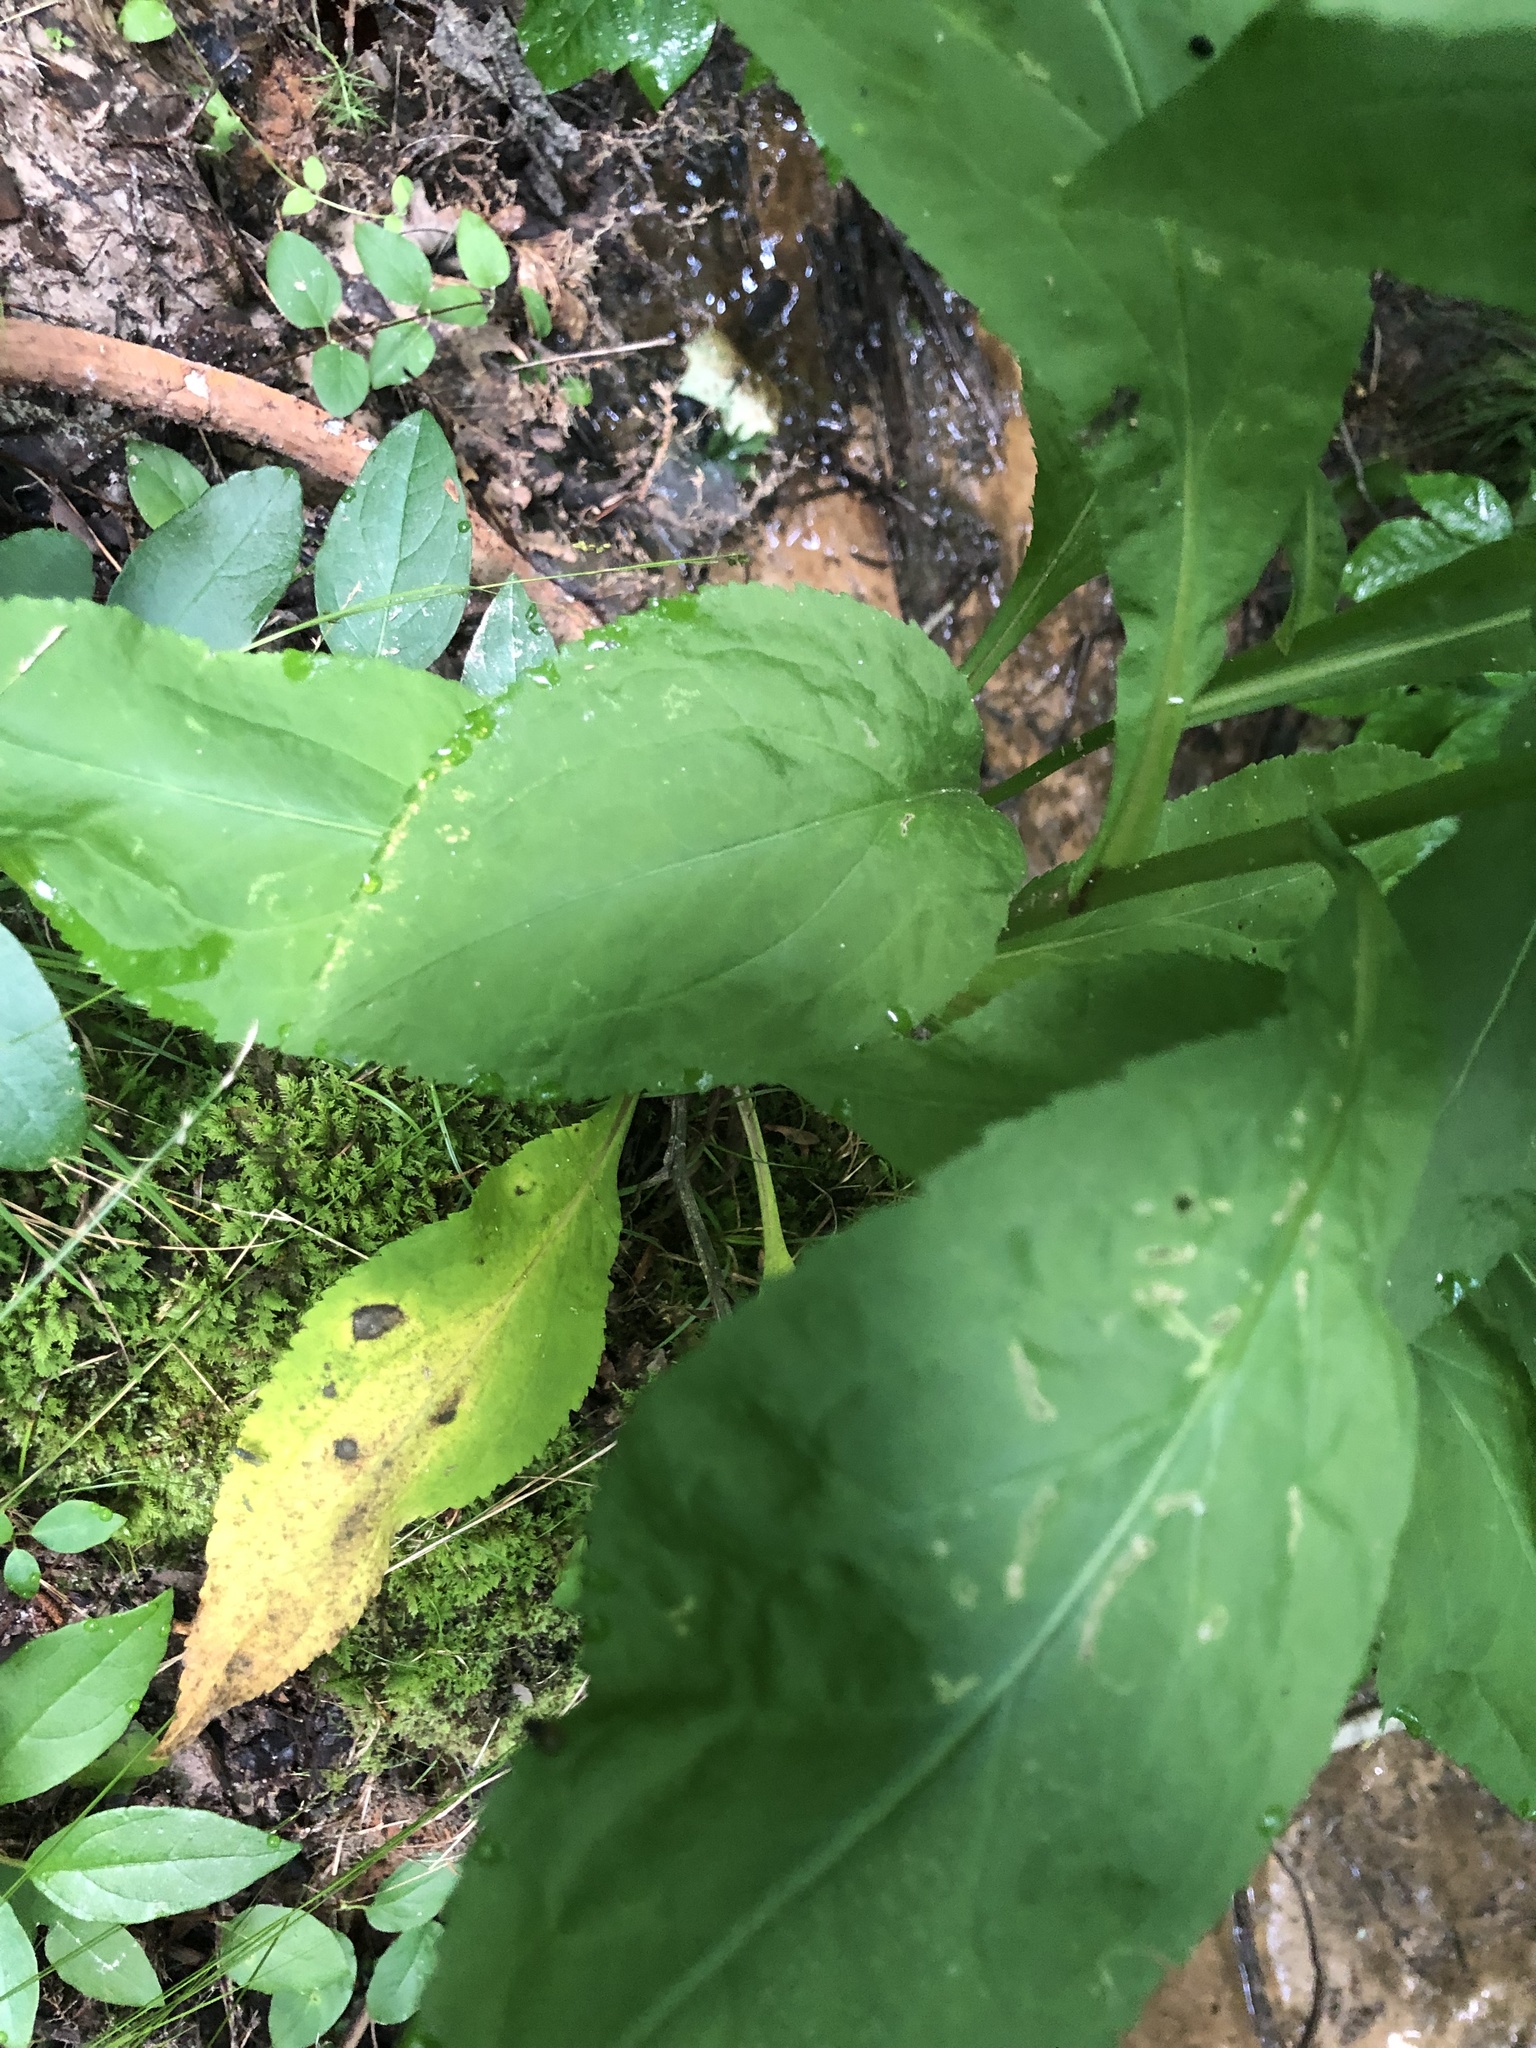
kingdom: Plantae
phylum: Tracheophyta
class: Magnoliopsida
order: Asterales
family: Asteraceae
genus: Solidago
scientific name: Solidago patula
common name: Rough-leaf goldenrod
